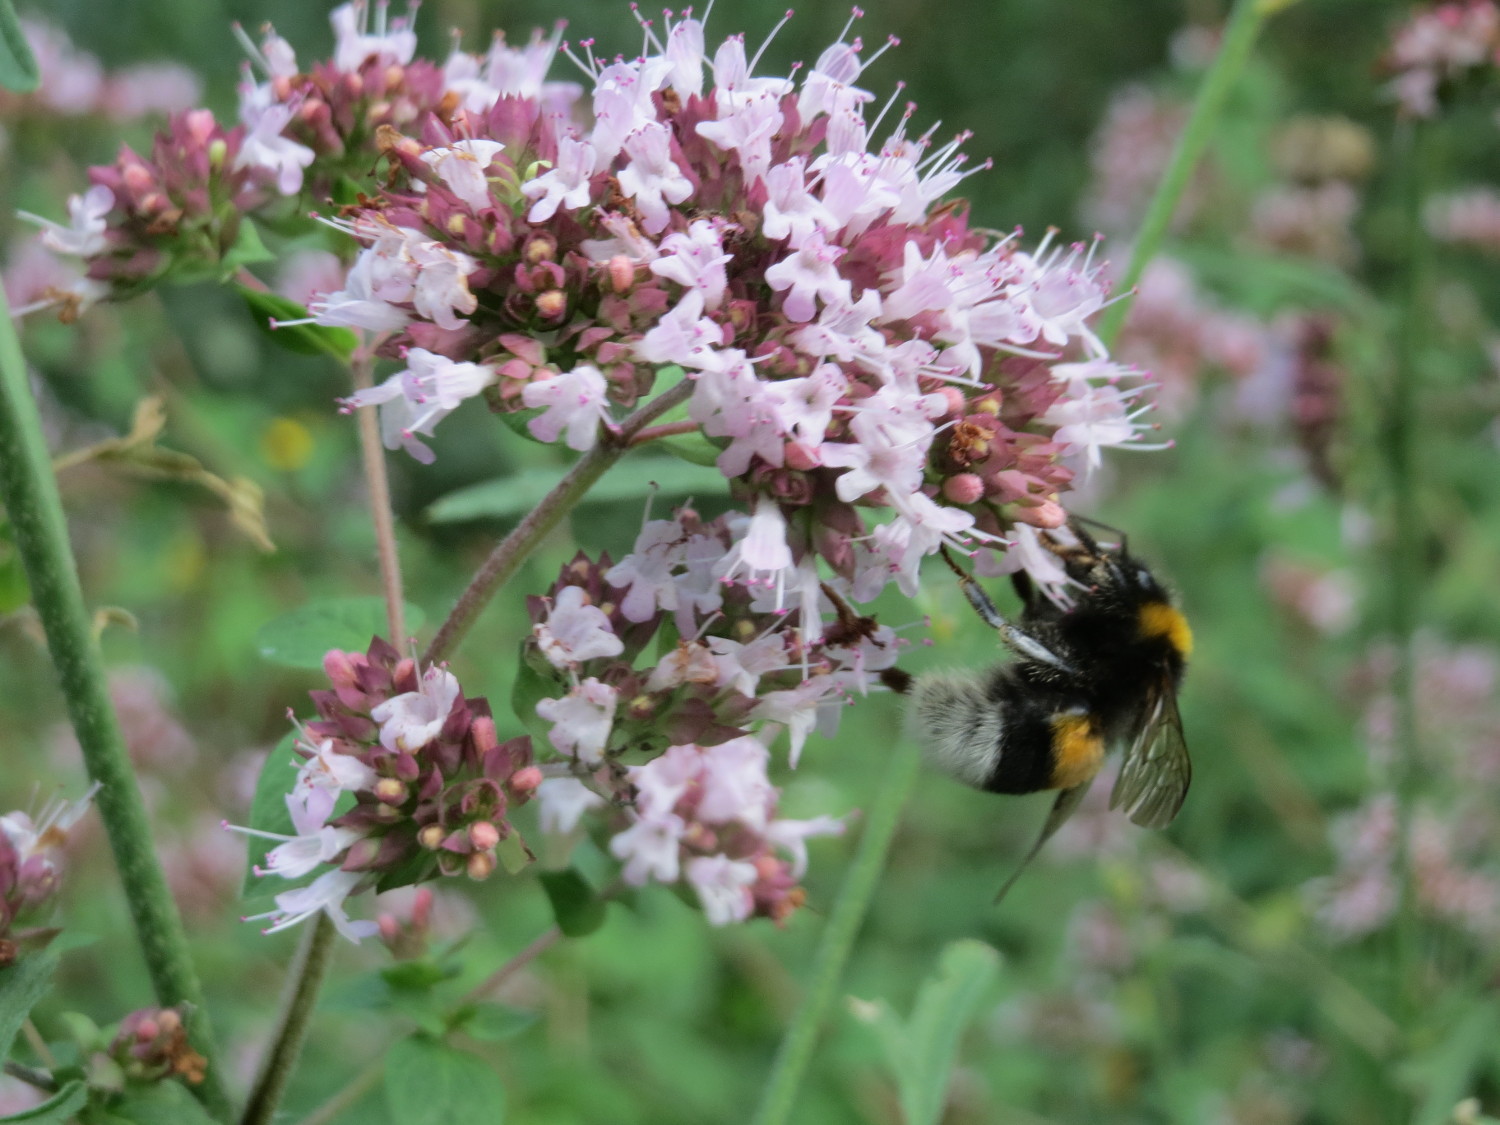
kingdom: Plantae
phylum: Tracheophyta
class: Magnoliopsida
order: Lamiales
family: Lamiaceae
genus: Origanum
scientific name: Origanum vulgare
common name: Wild marjoram
